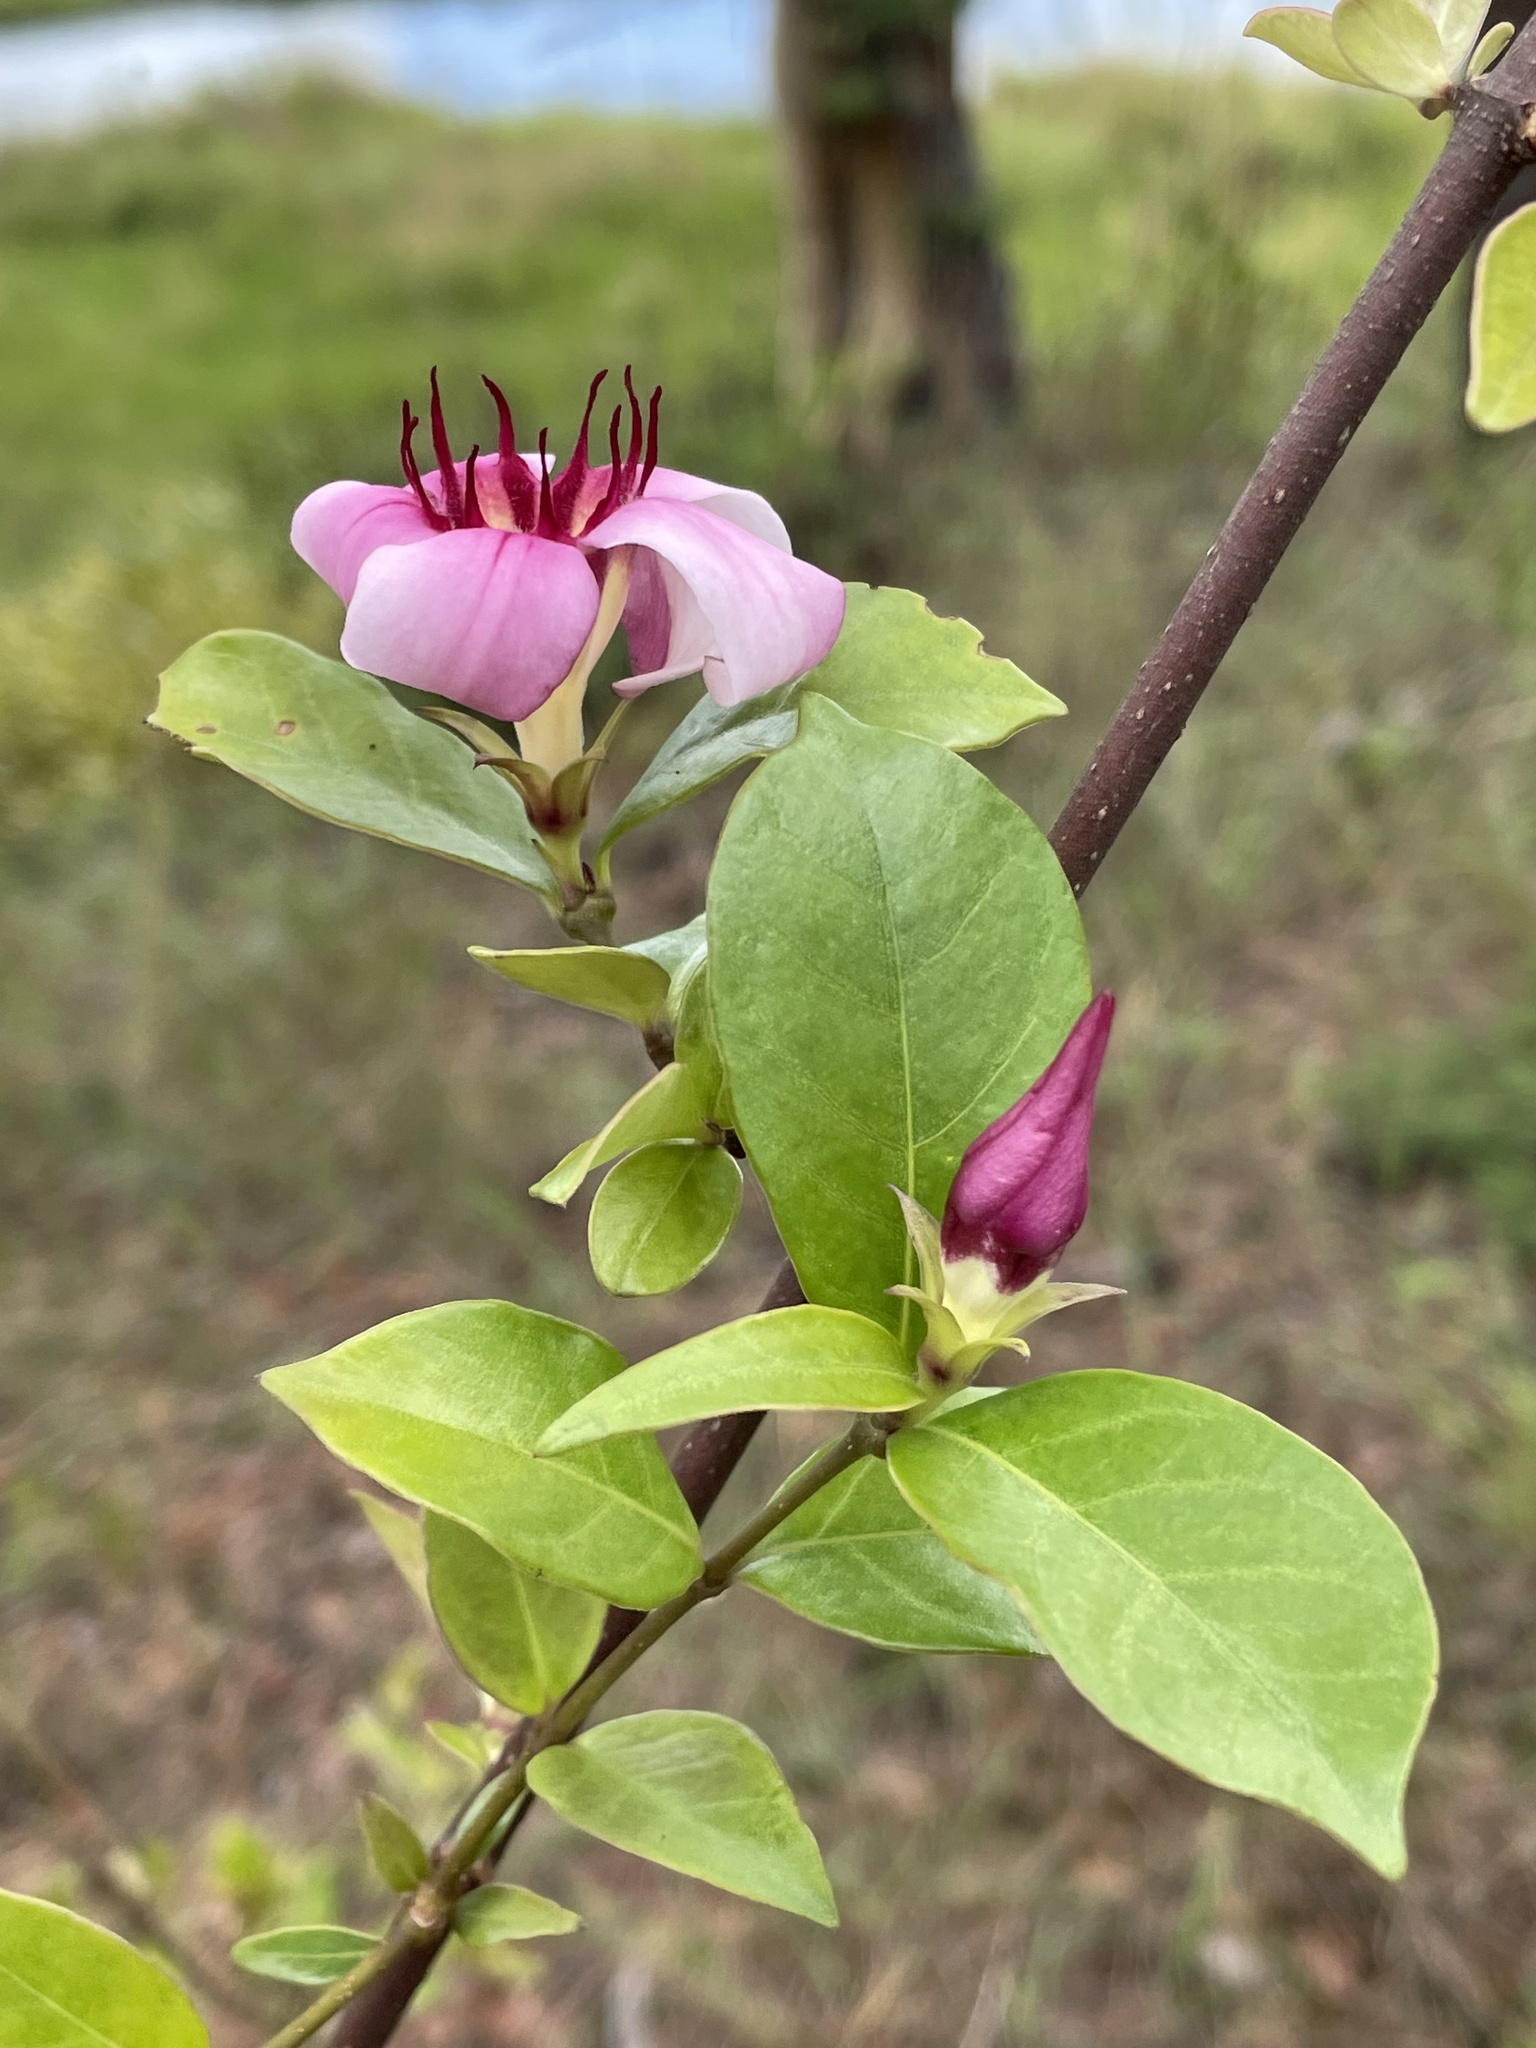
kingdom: Plantae
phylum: Tracheophyta
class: Magnoliopsida
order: Gentianales
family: Apocynaceae
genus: Strophanthus
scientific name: Strophanthus welwitschii
